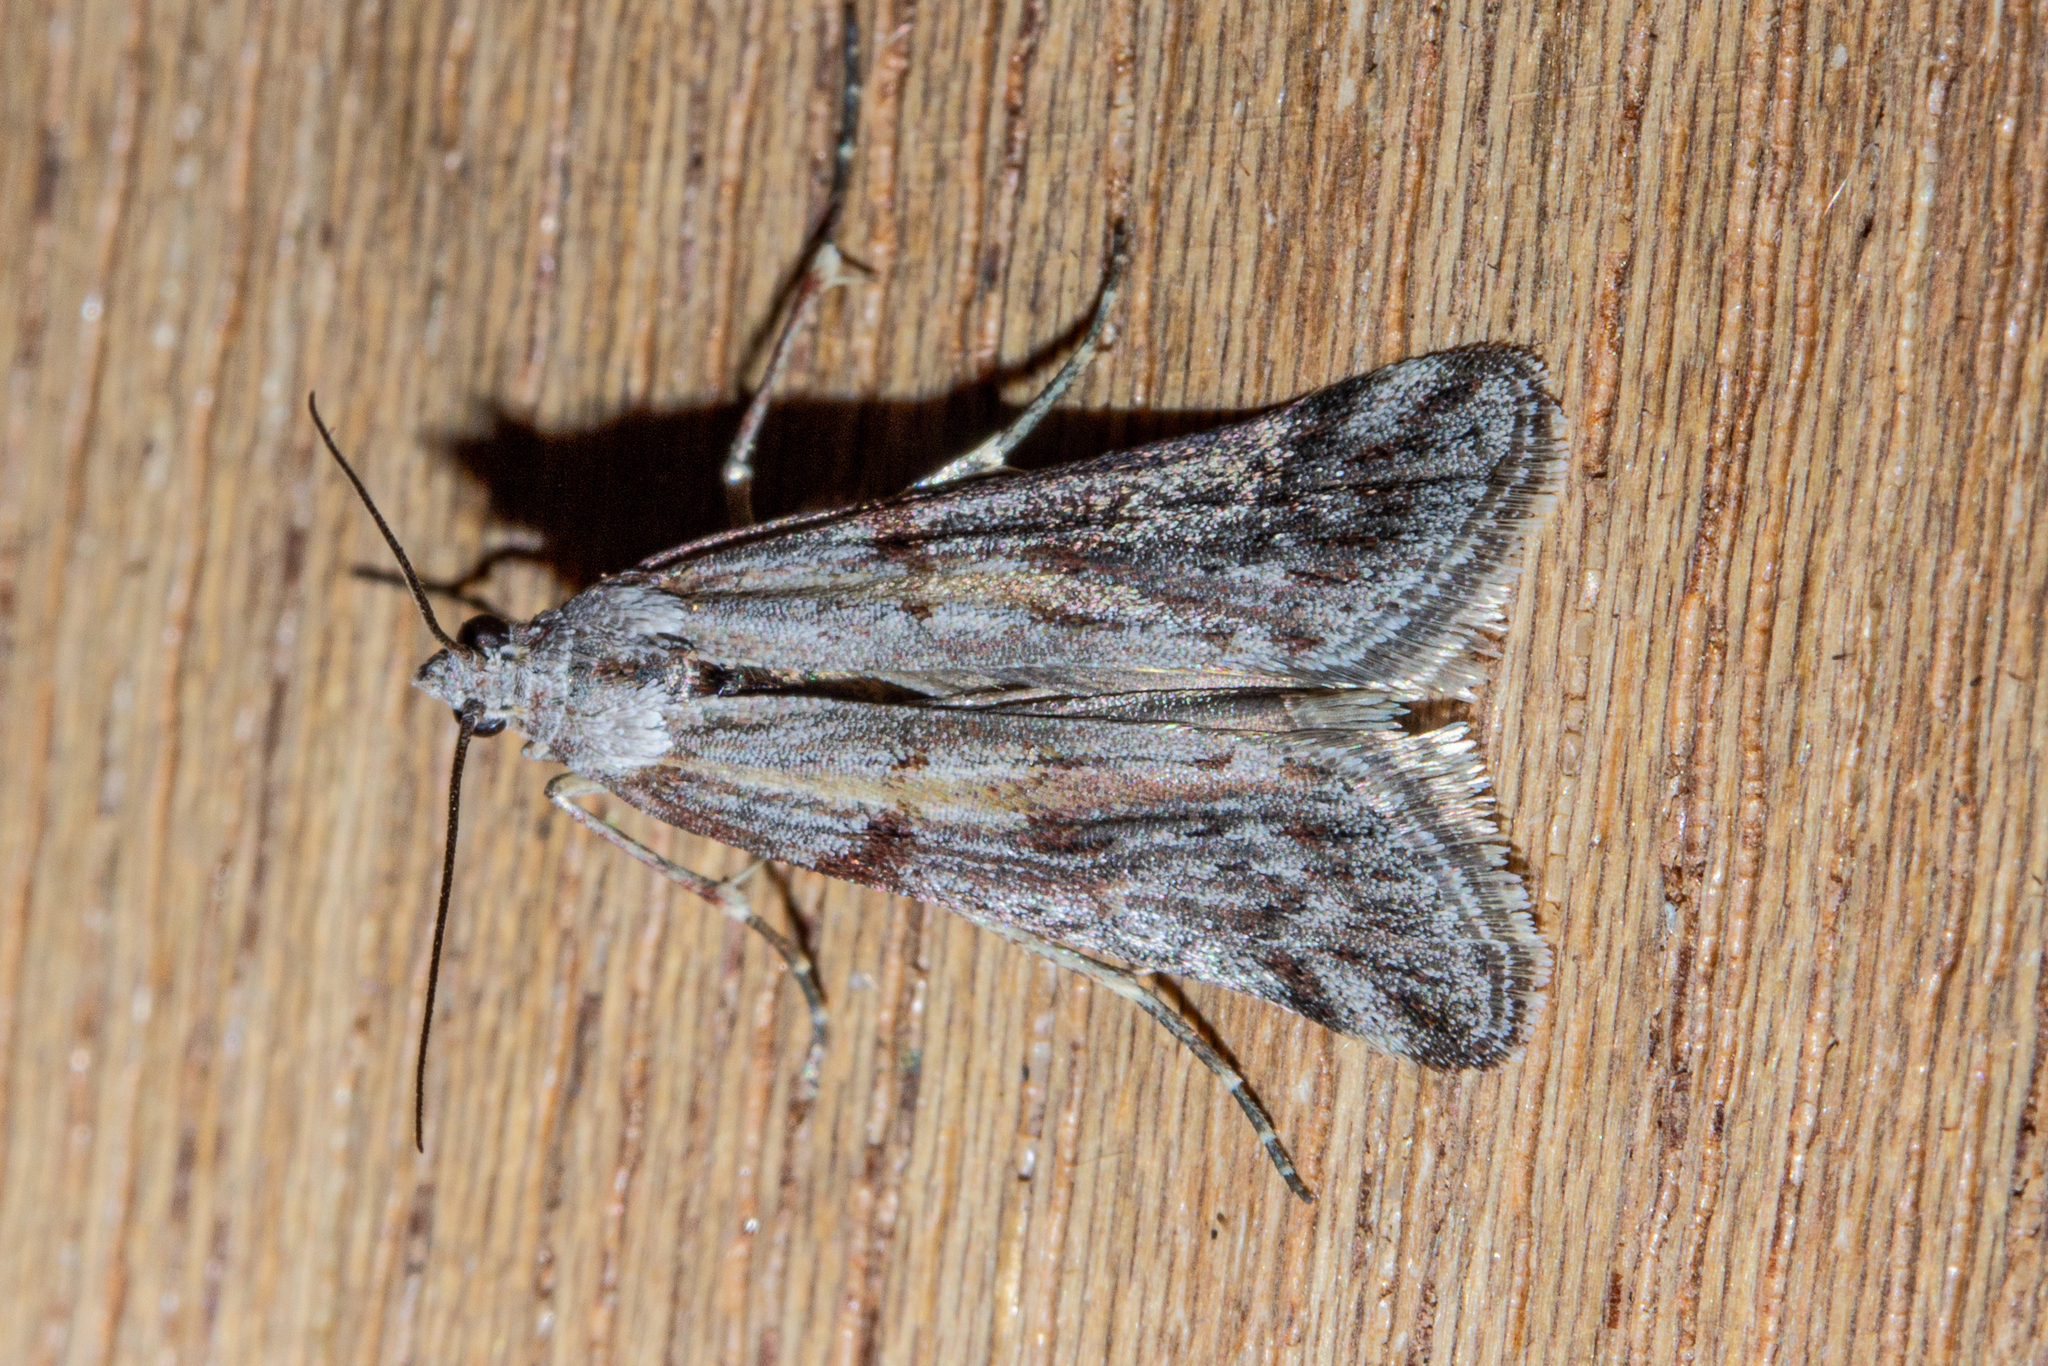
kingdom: Animalia
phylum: Arthropoda
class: Insecta
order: Lepidoptera
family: Pyralidae
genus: Patagoniodes
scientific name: Patagoniodes farinaria
